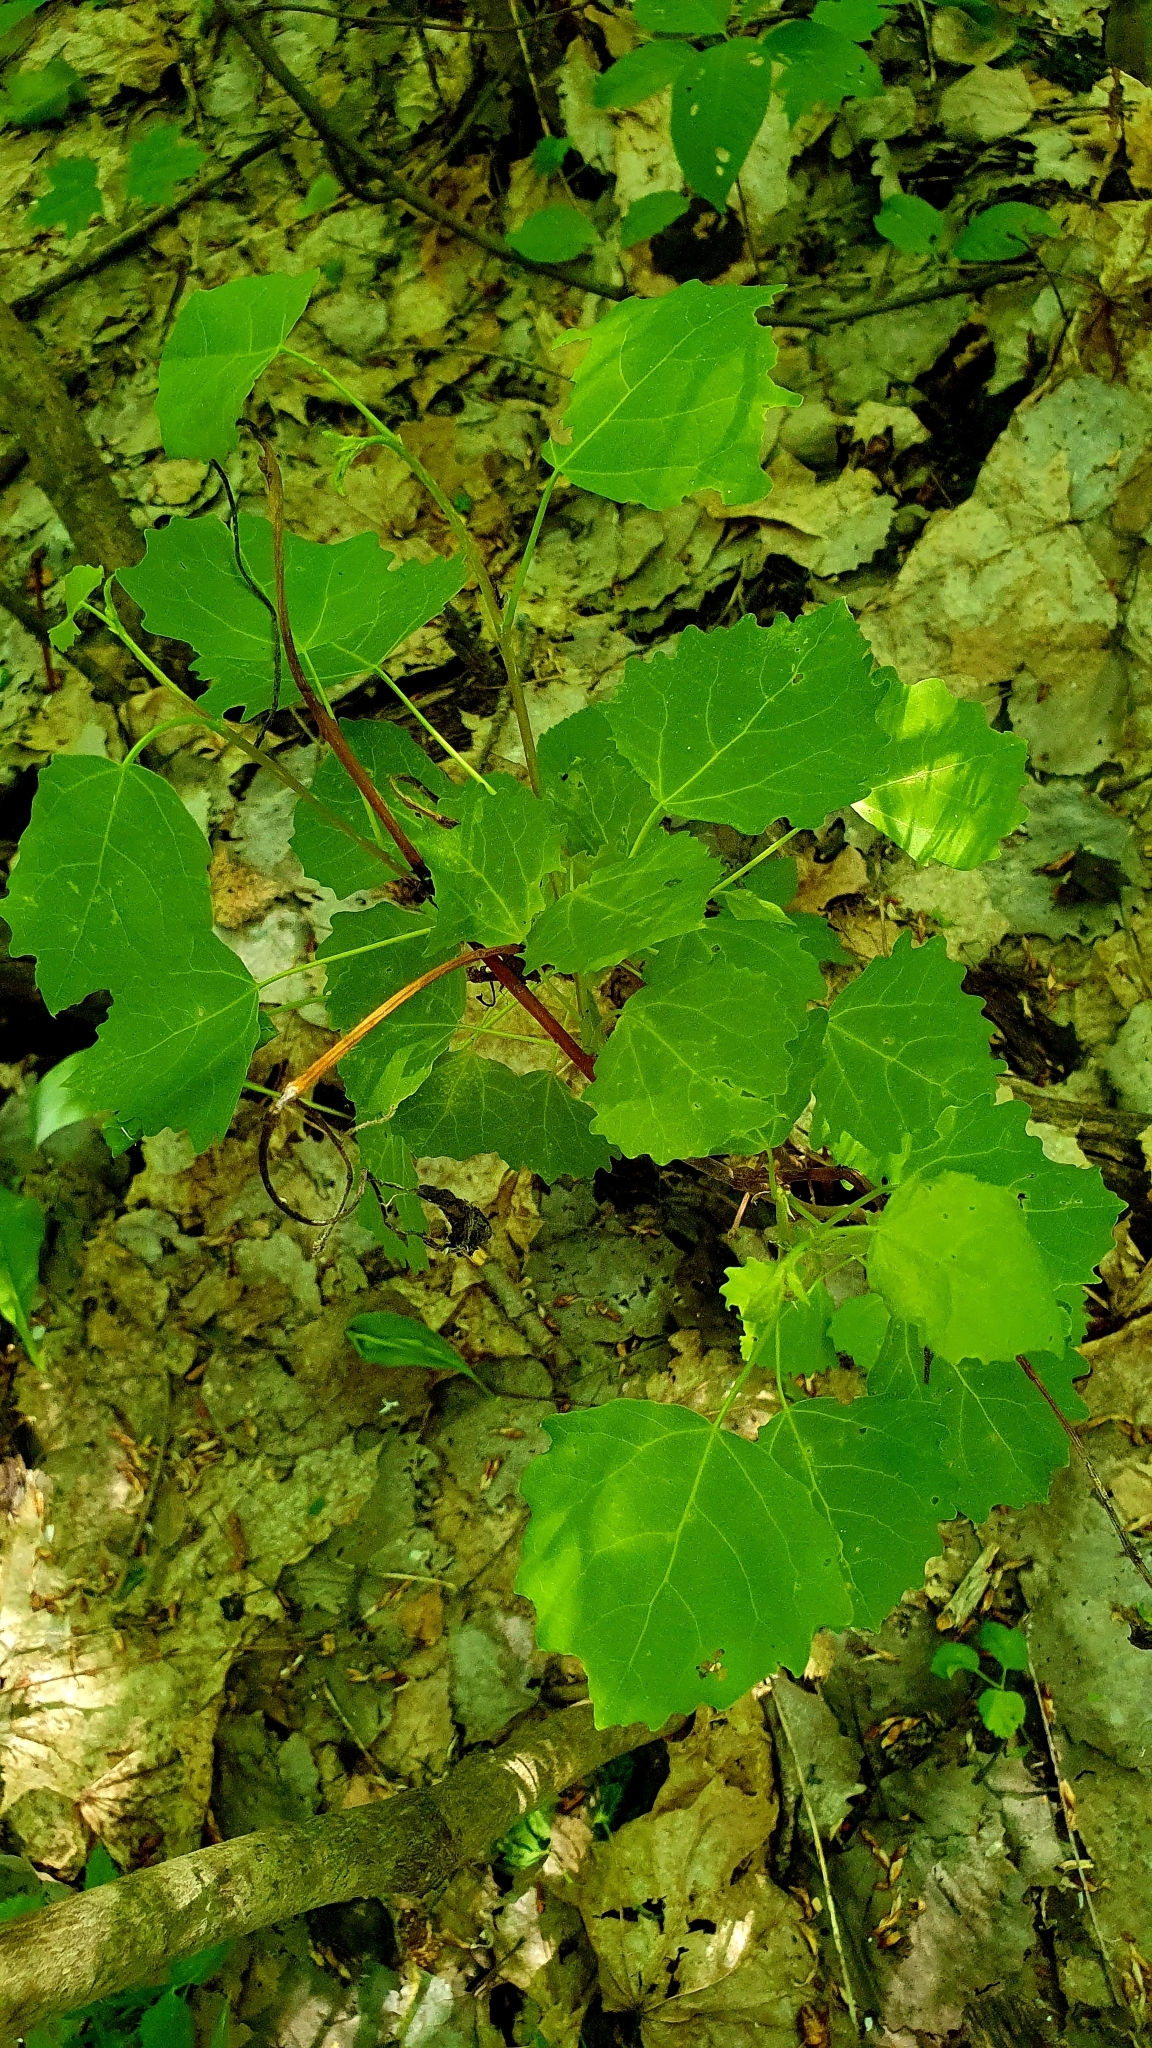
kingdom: Plantae
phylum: Tracheophyta
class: Magnoliopsida
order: Malpighiales
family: Salicaceae
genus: Populus
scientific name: Populus tremula
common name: European aspen
